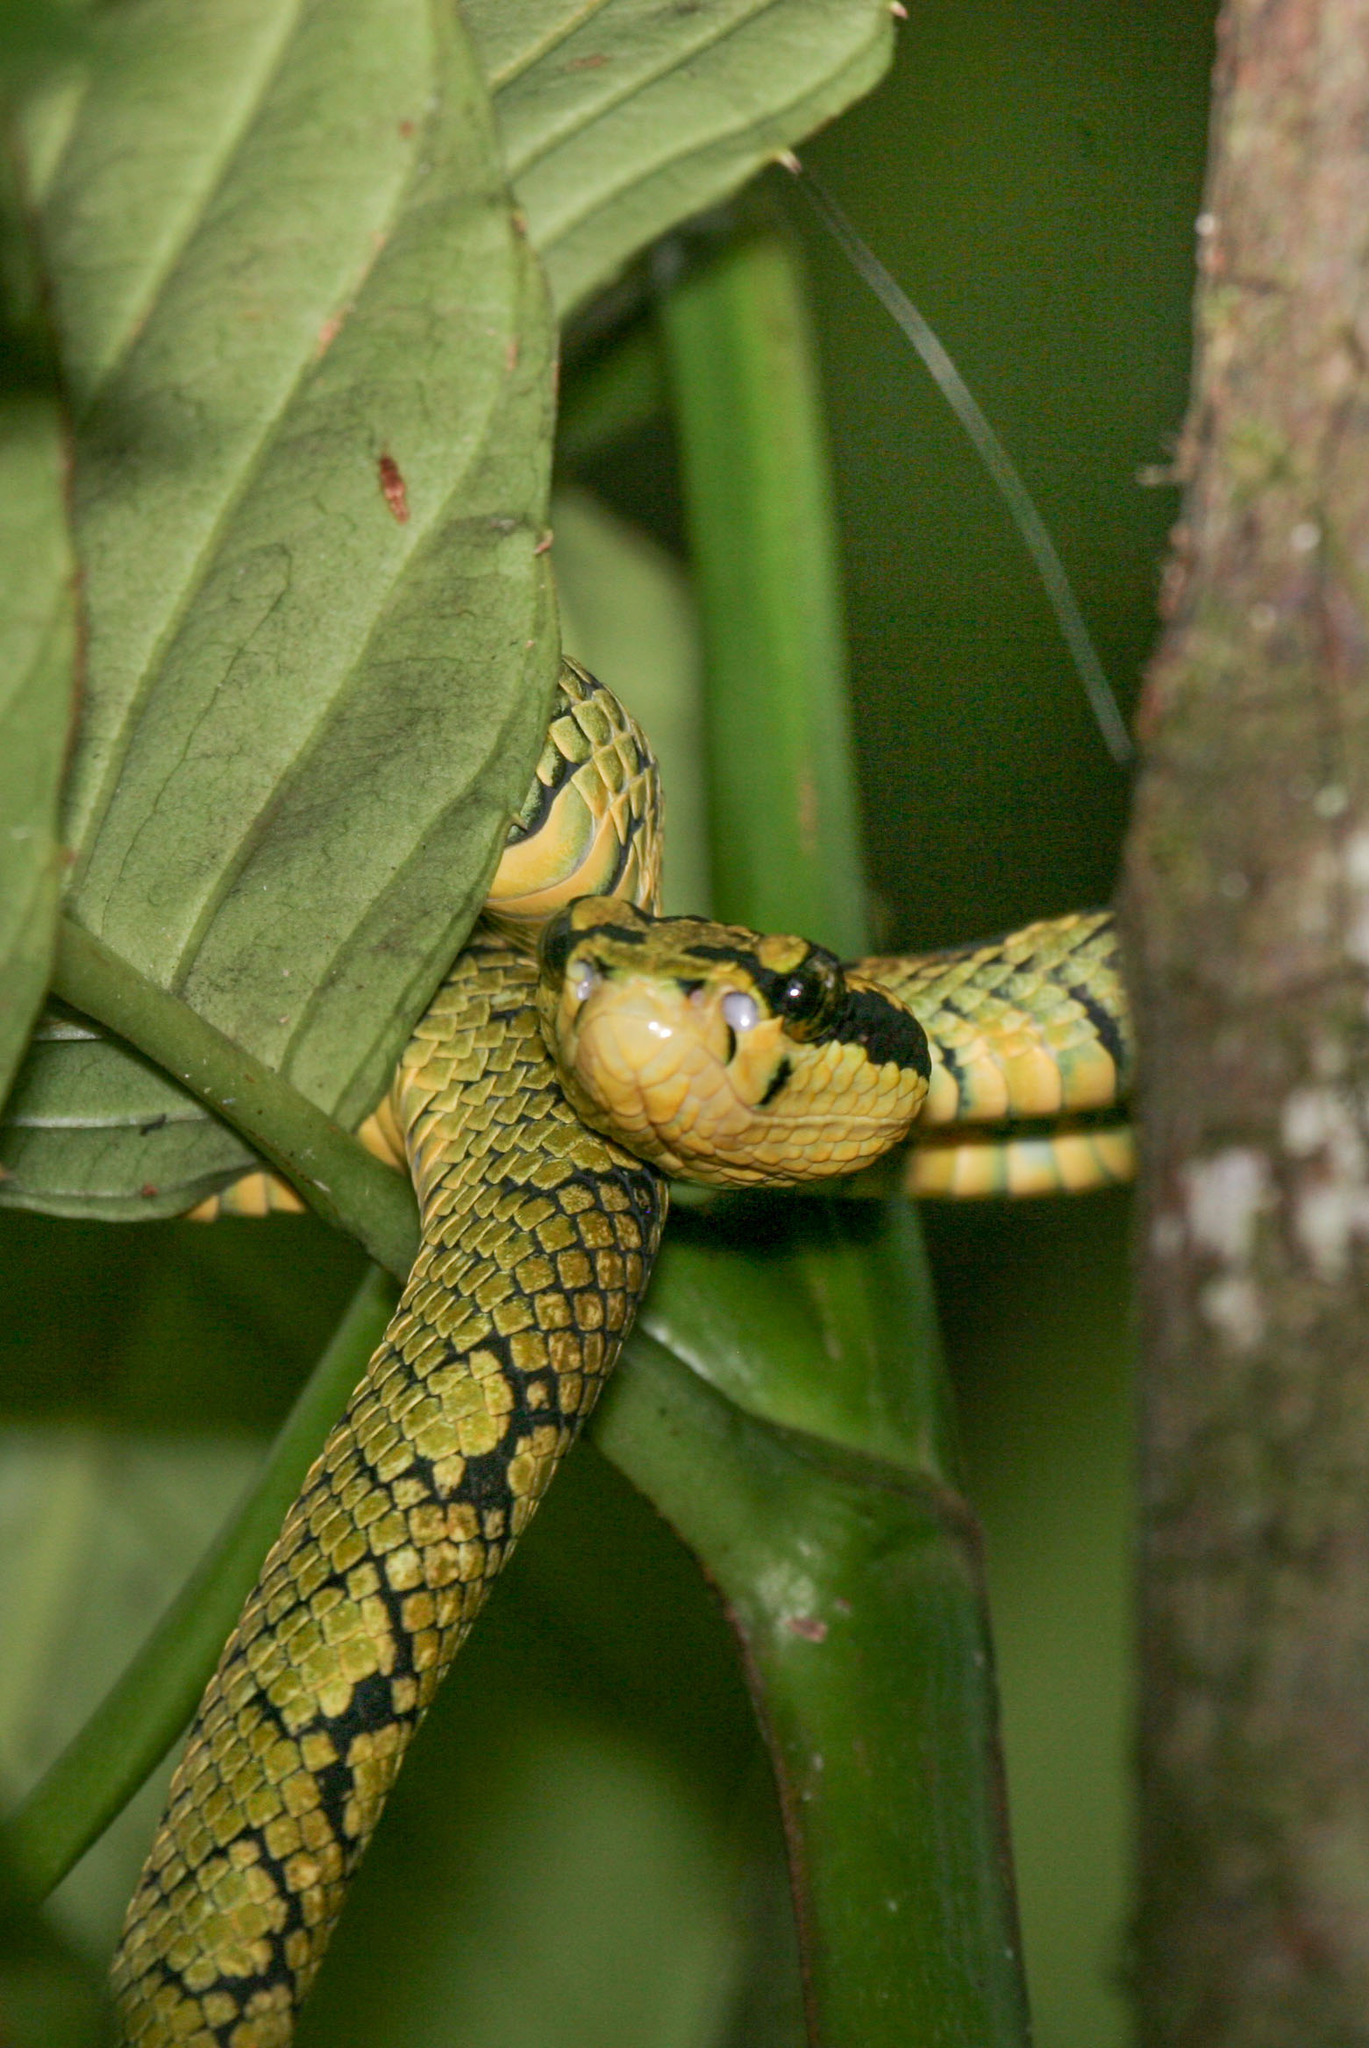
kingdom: Animalia
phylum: Chordata
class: Squamata
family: Viperidae
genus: Craspedocephalus
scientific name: Craspedocephalus trigonocephalus
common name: Ceylon pit viper
